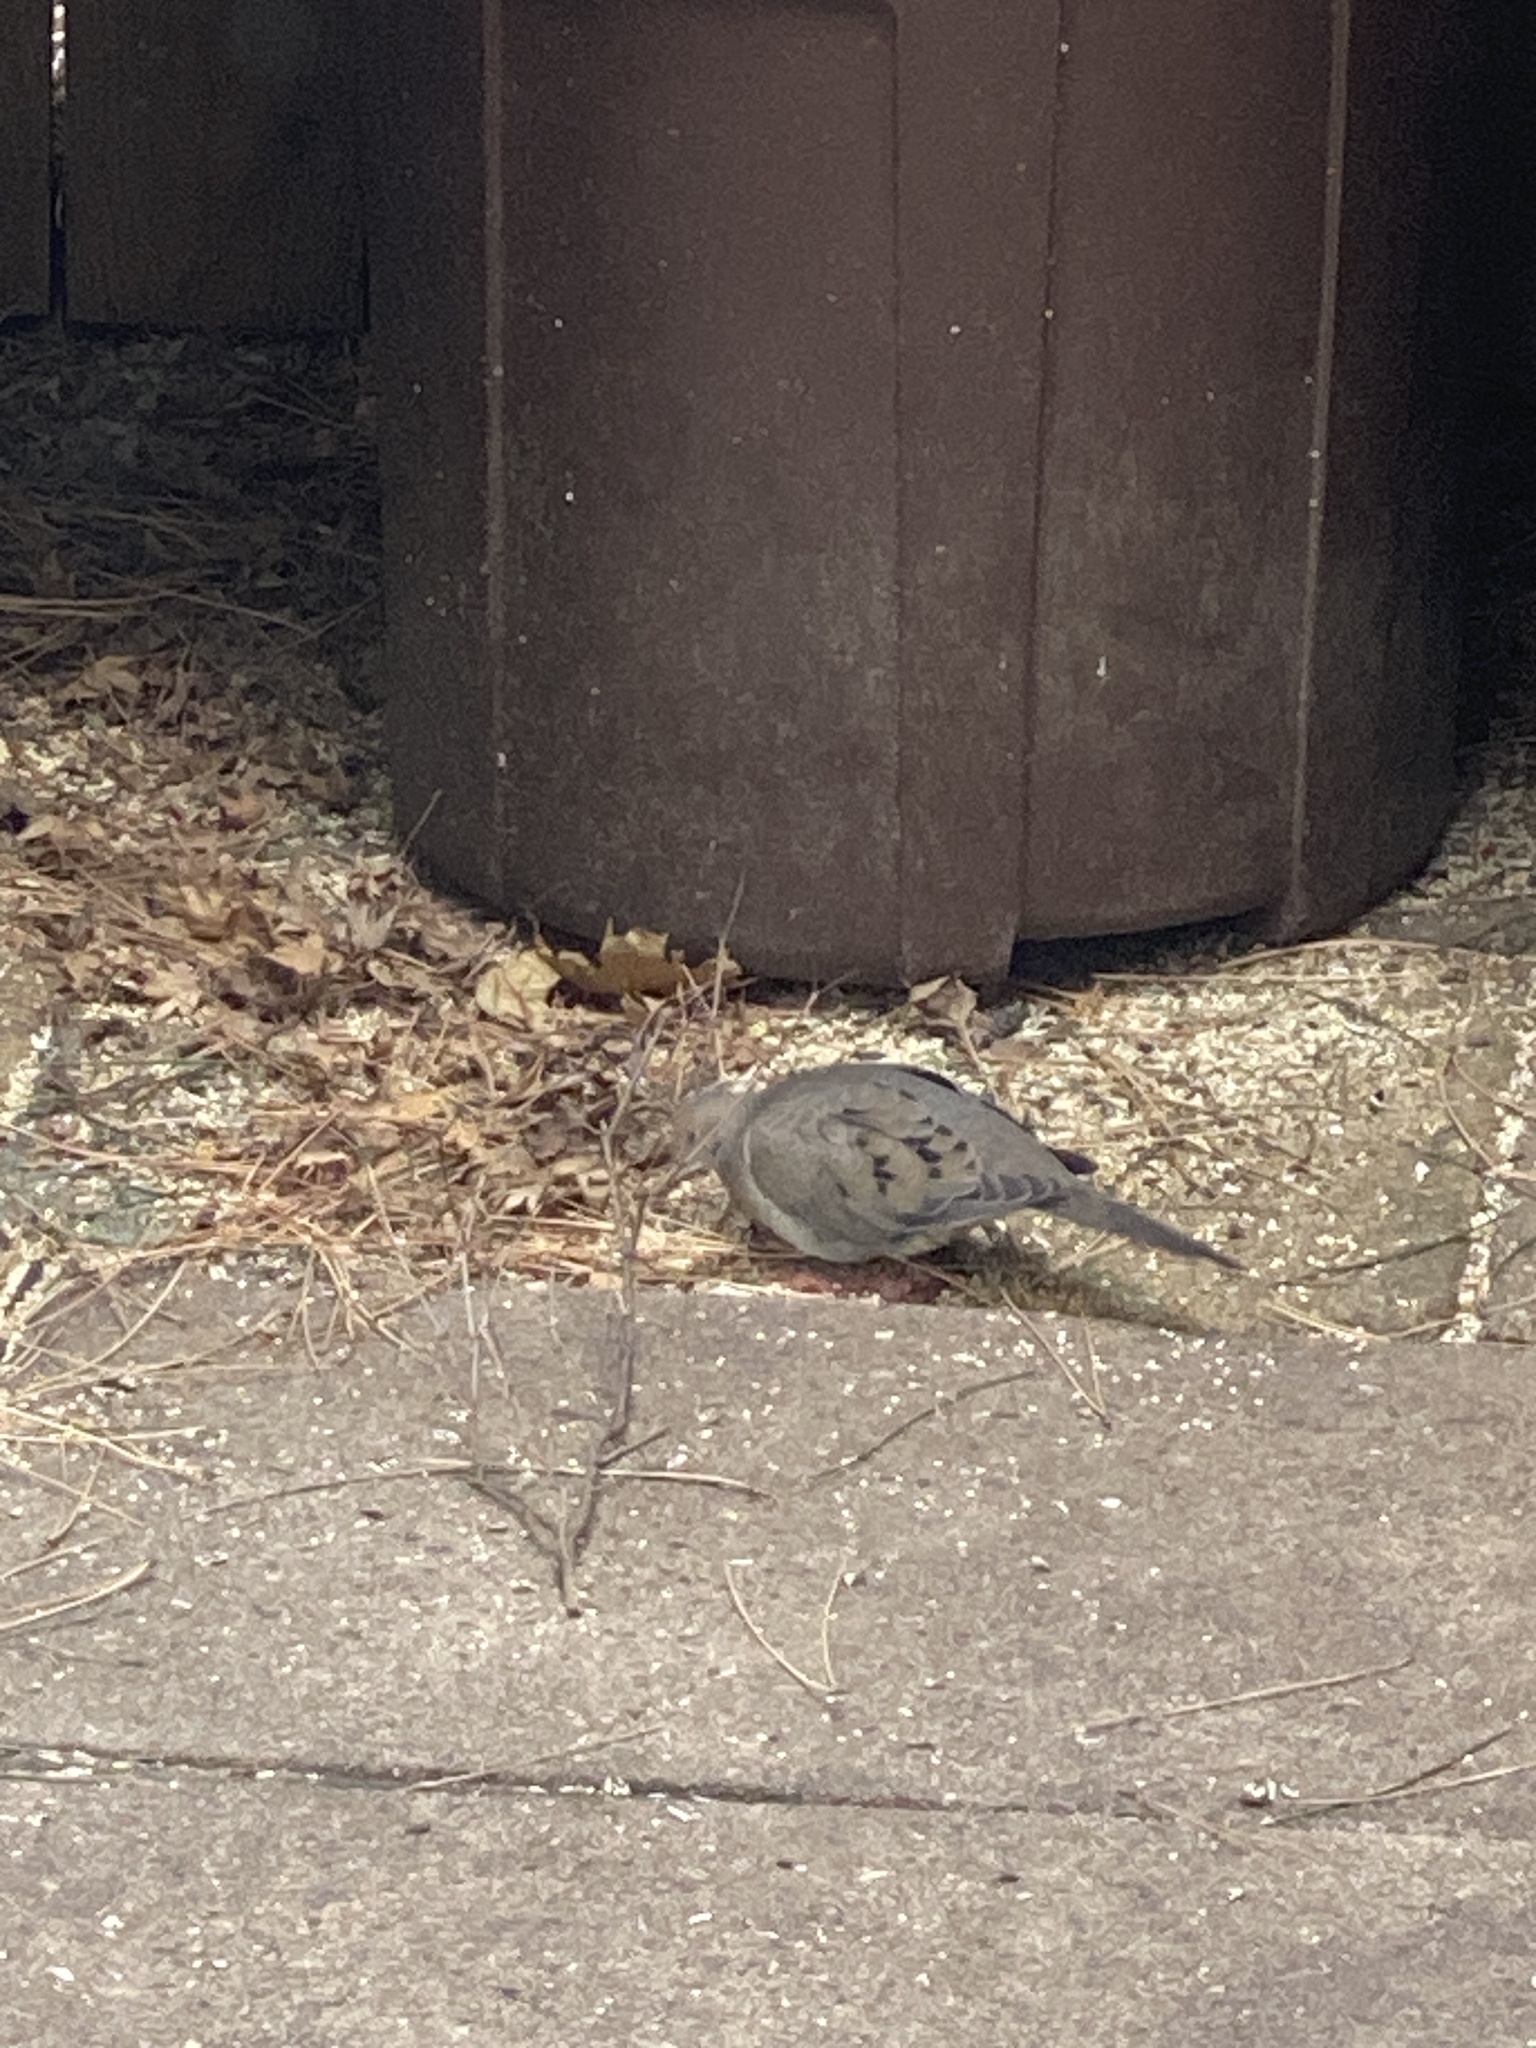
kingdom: Animalia
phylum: Chordata
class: Aves
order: Columbiformes
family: Columbidae
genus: Zenaida
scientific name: Zenaida macroura
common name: Mourning dove
